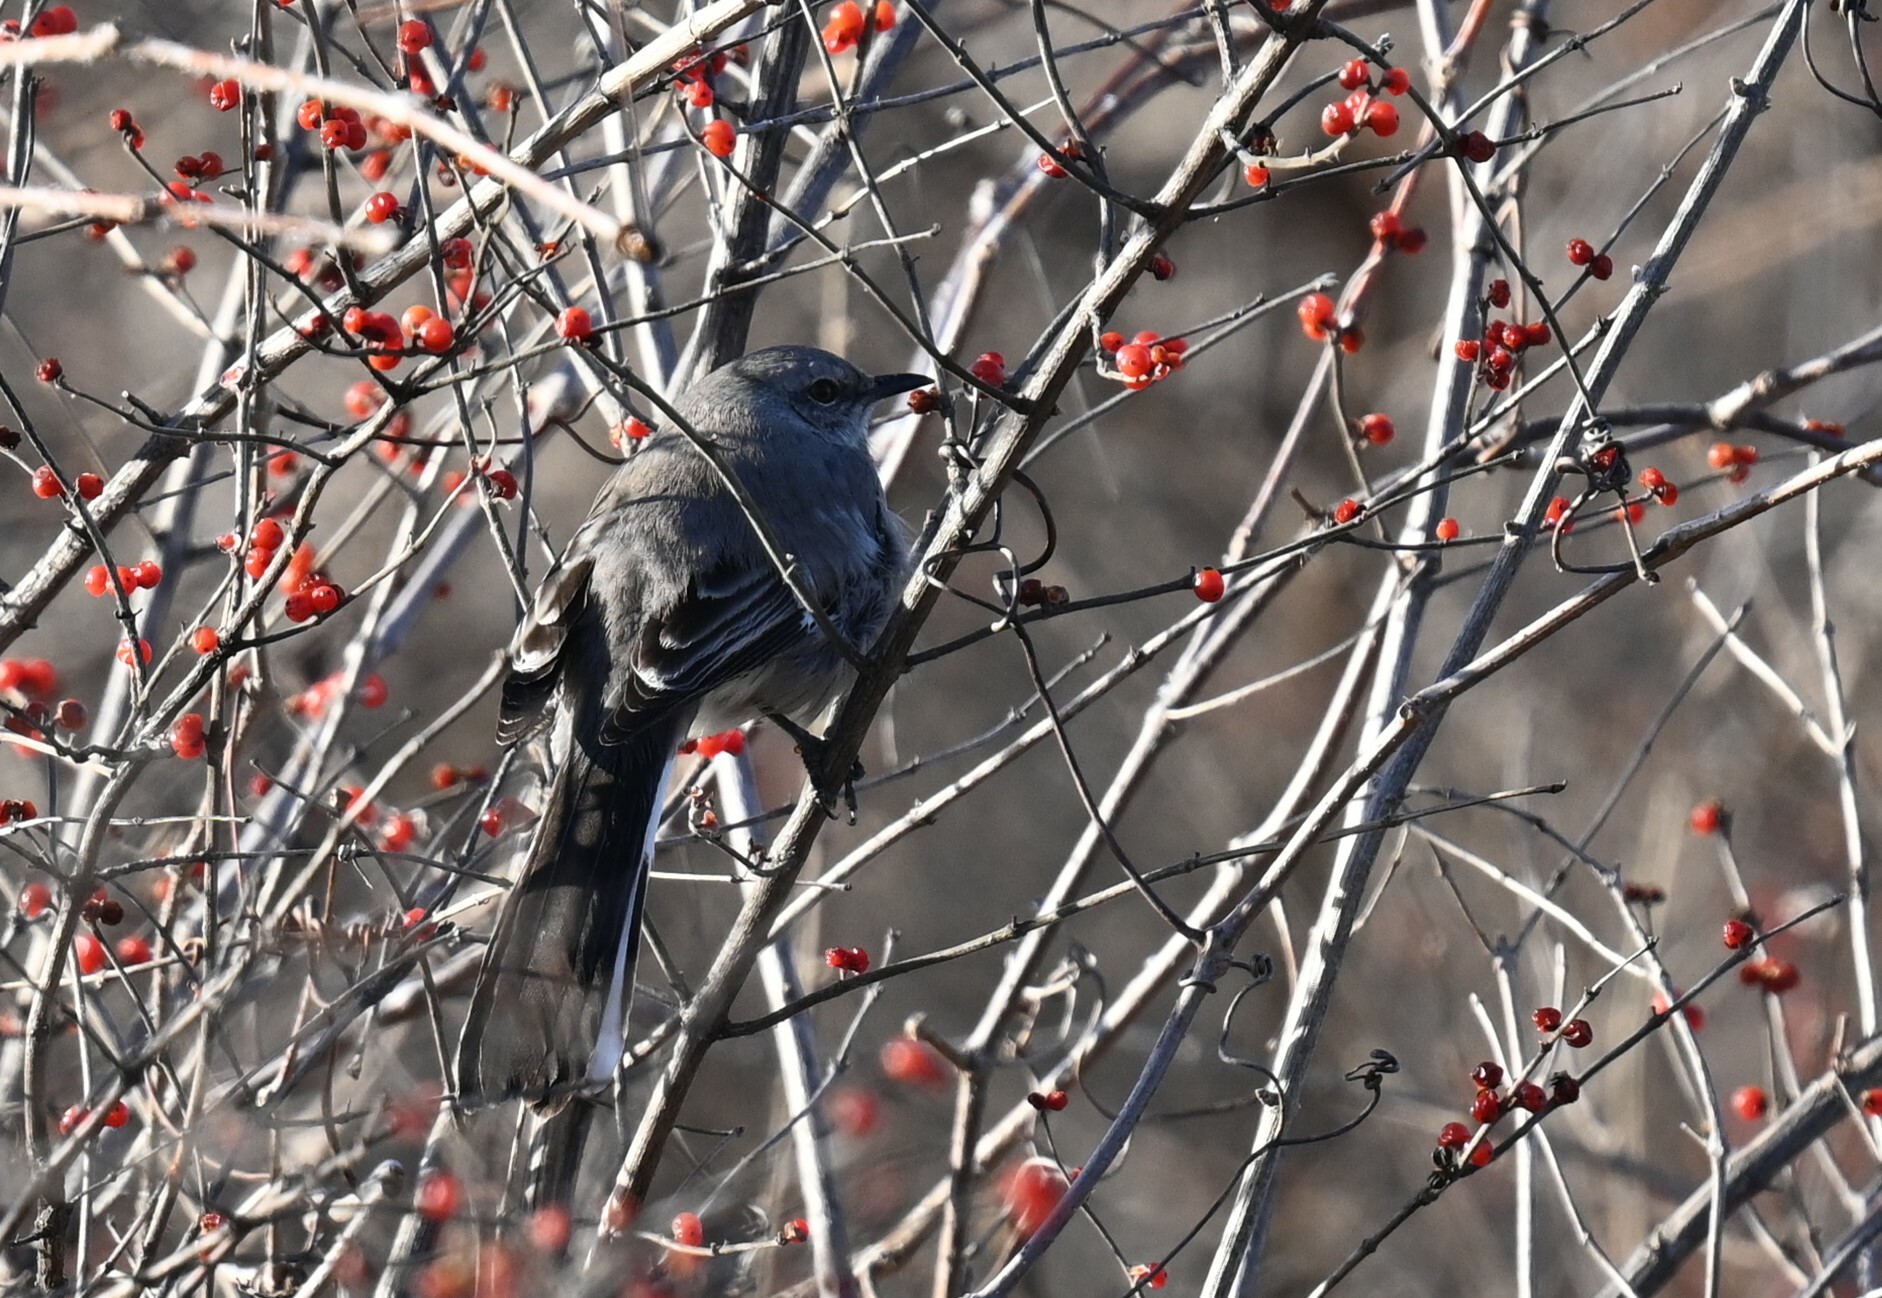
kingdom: Animalia
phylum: Chordata
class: Aves
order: Passeriformes
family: Mimidae
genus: Mimus
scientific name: Mimus polyglottos
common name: Northern mockingbird
